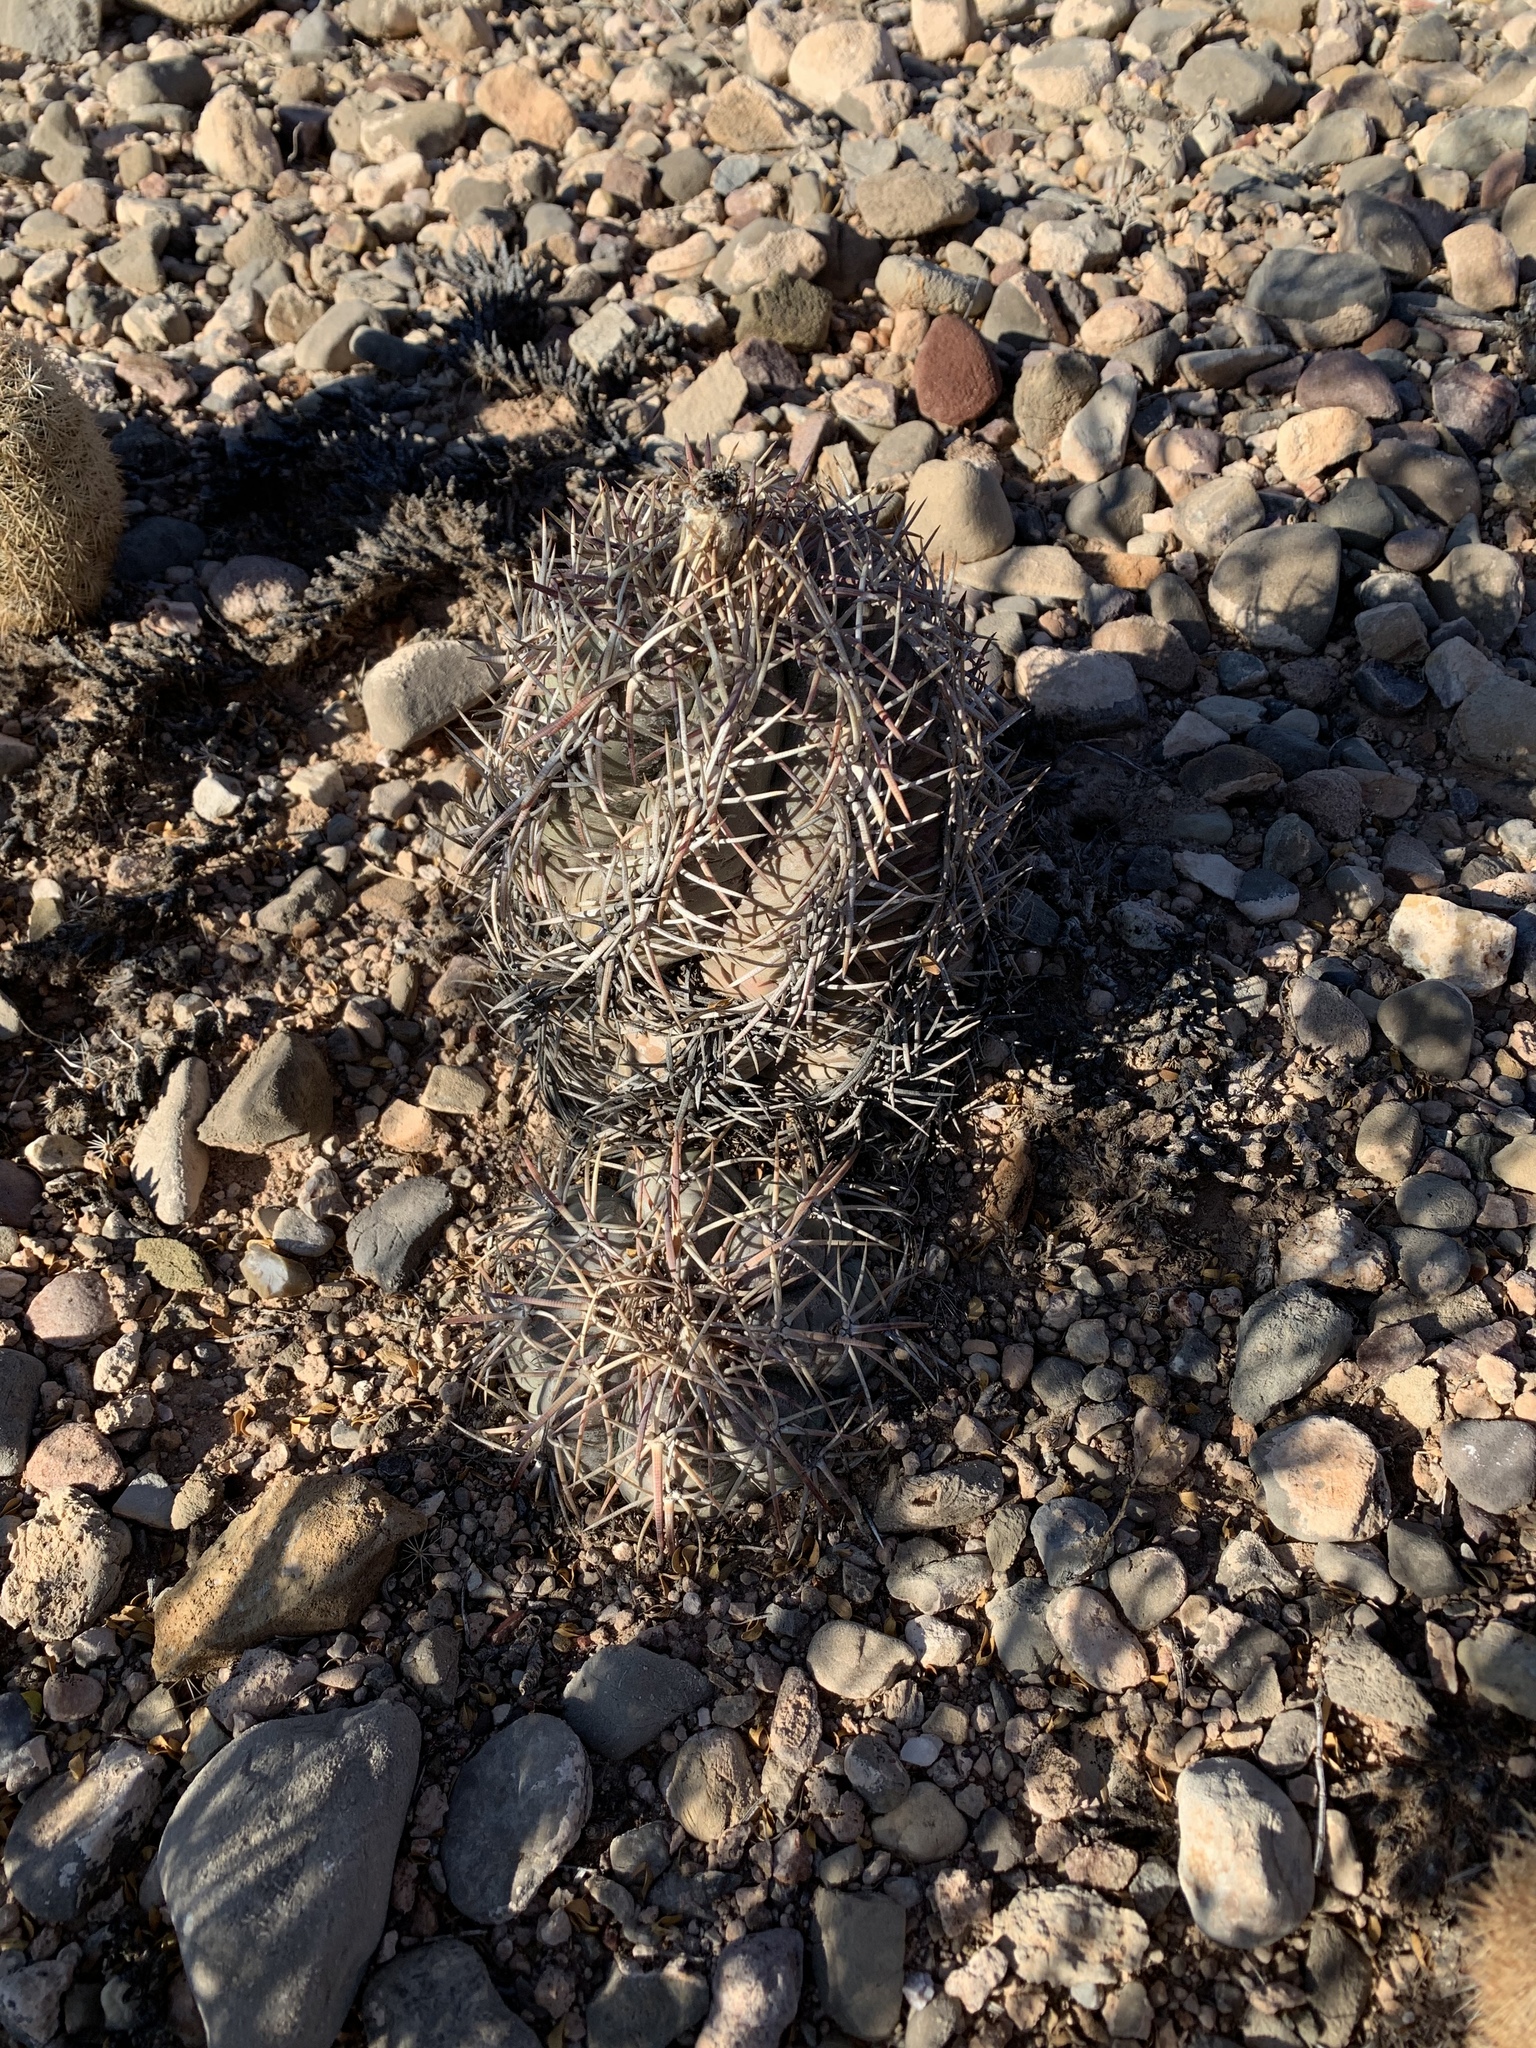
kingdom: Plantae
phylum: Tracheophyta
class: Magnoliopsida
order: Caryophyllales
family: Cactaceae
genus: Echinocactus
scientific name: Echinocactus horizonthalonius
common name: Devilshead
